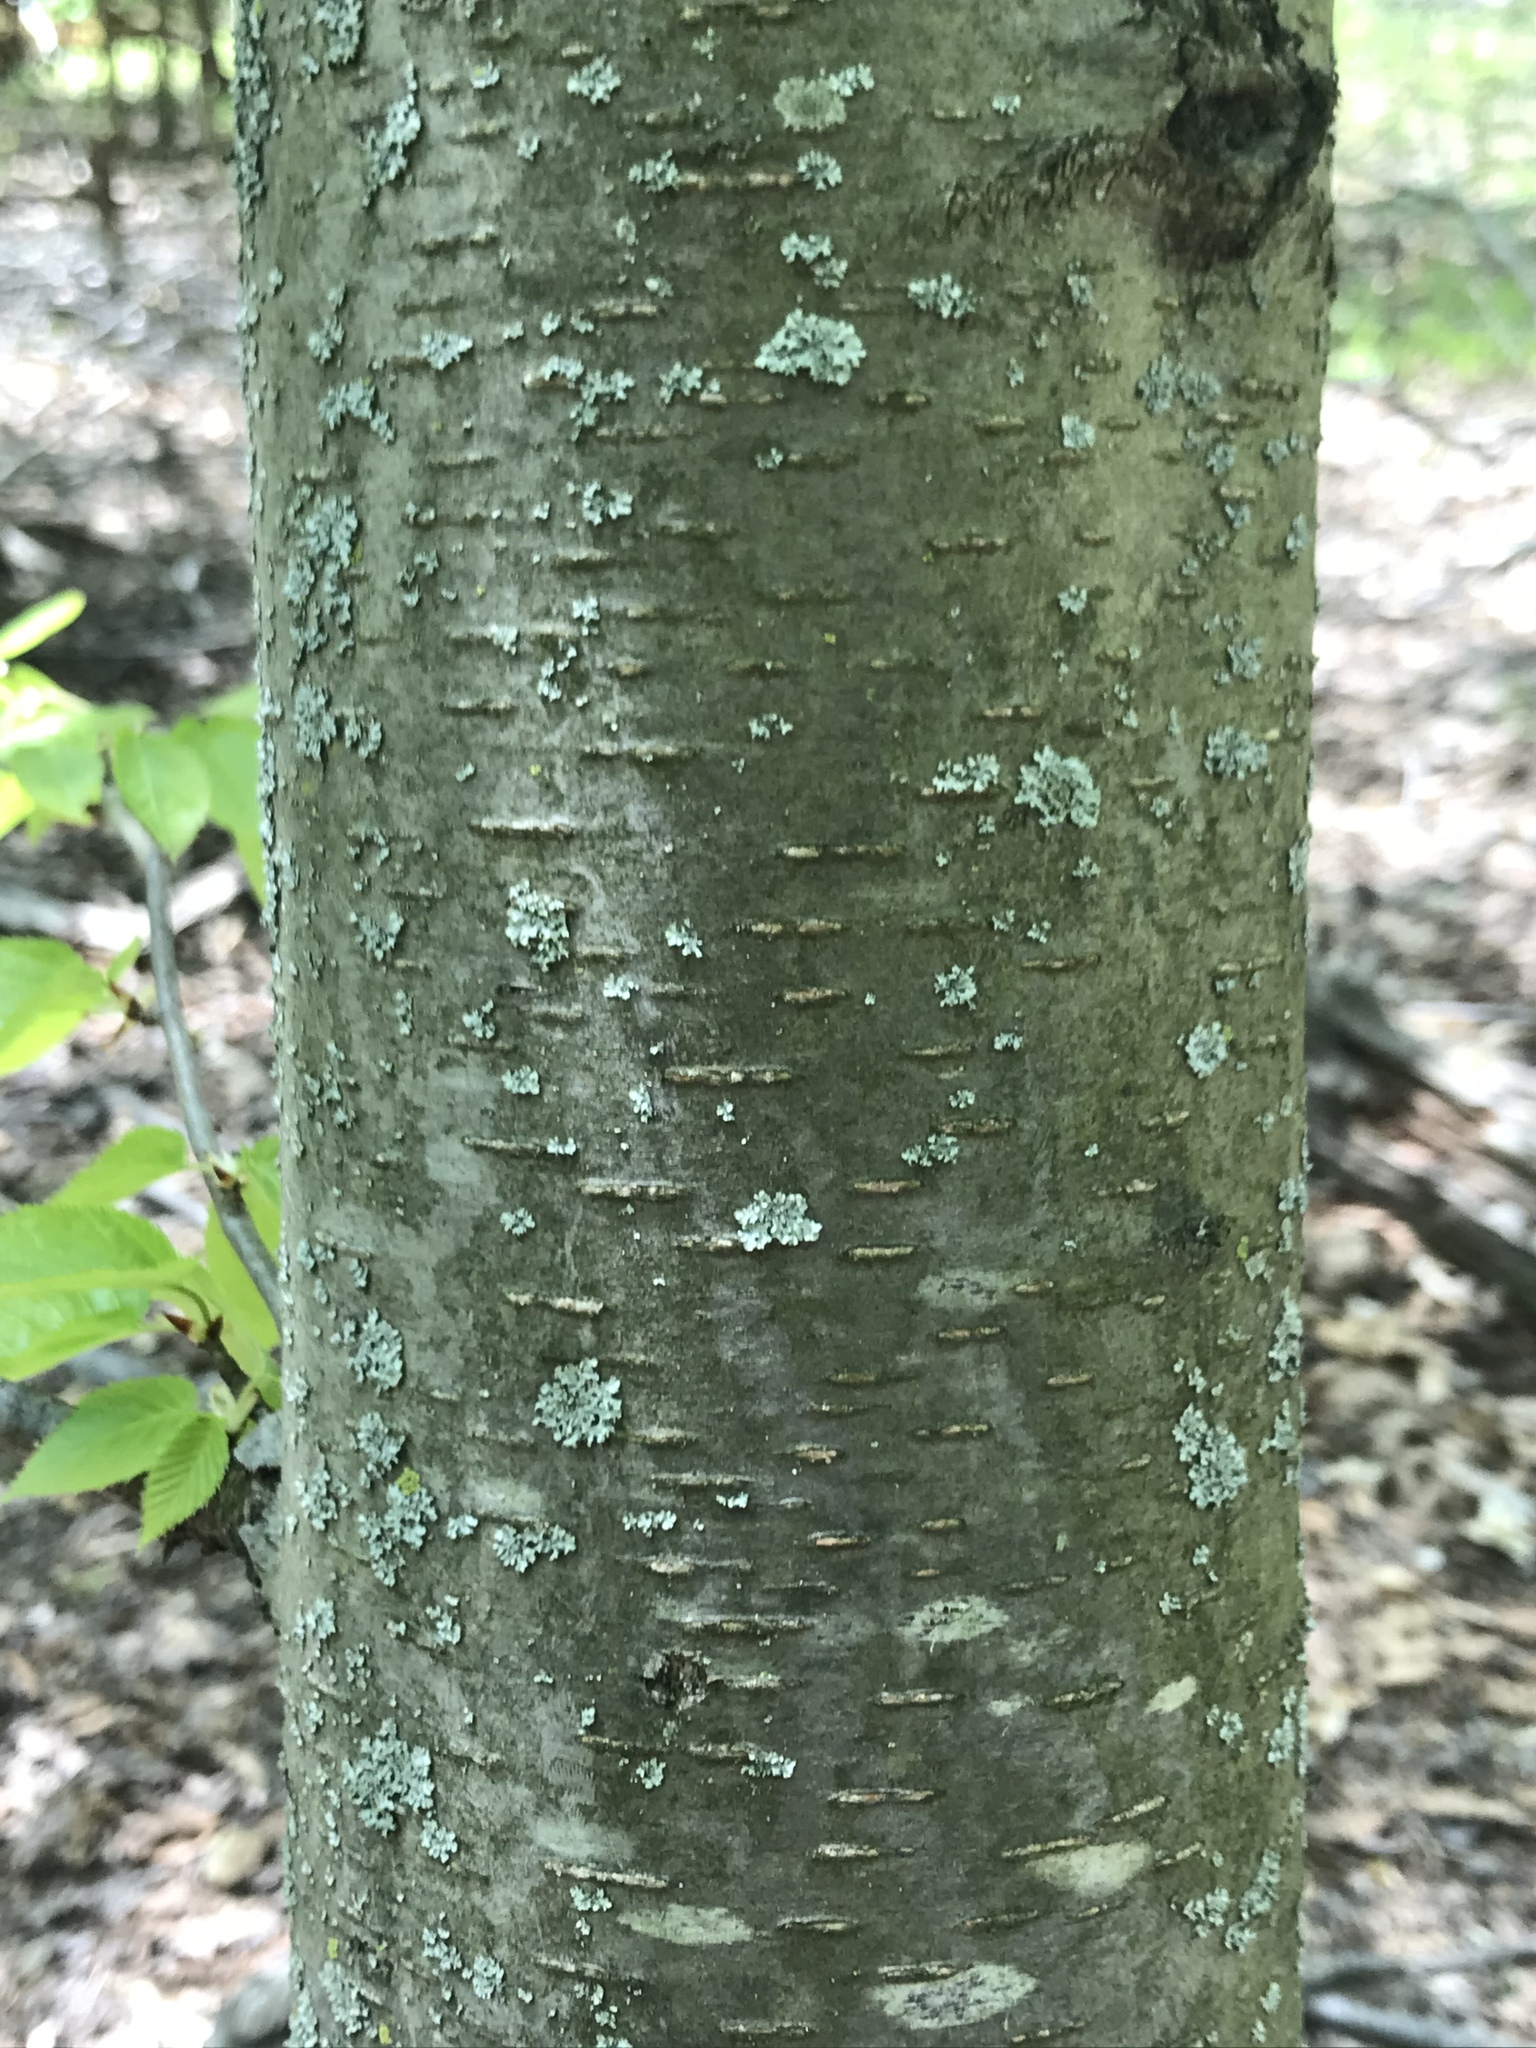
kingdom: Plantae
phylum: Tracheophyta
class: Magnoliopsida
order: Fagales
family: Betulaceae
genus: Betula
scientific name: Betula lenta
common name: Black birch
